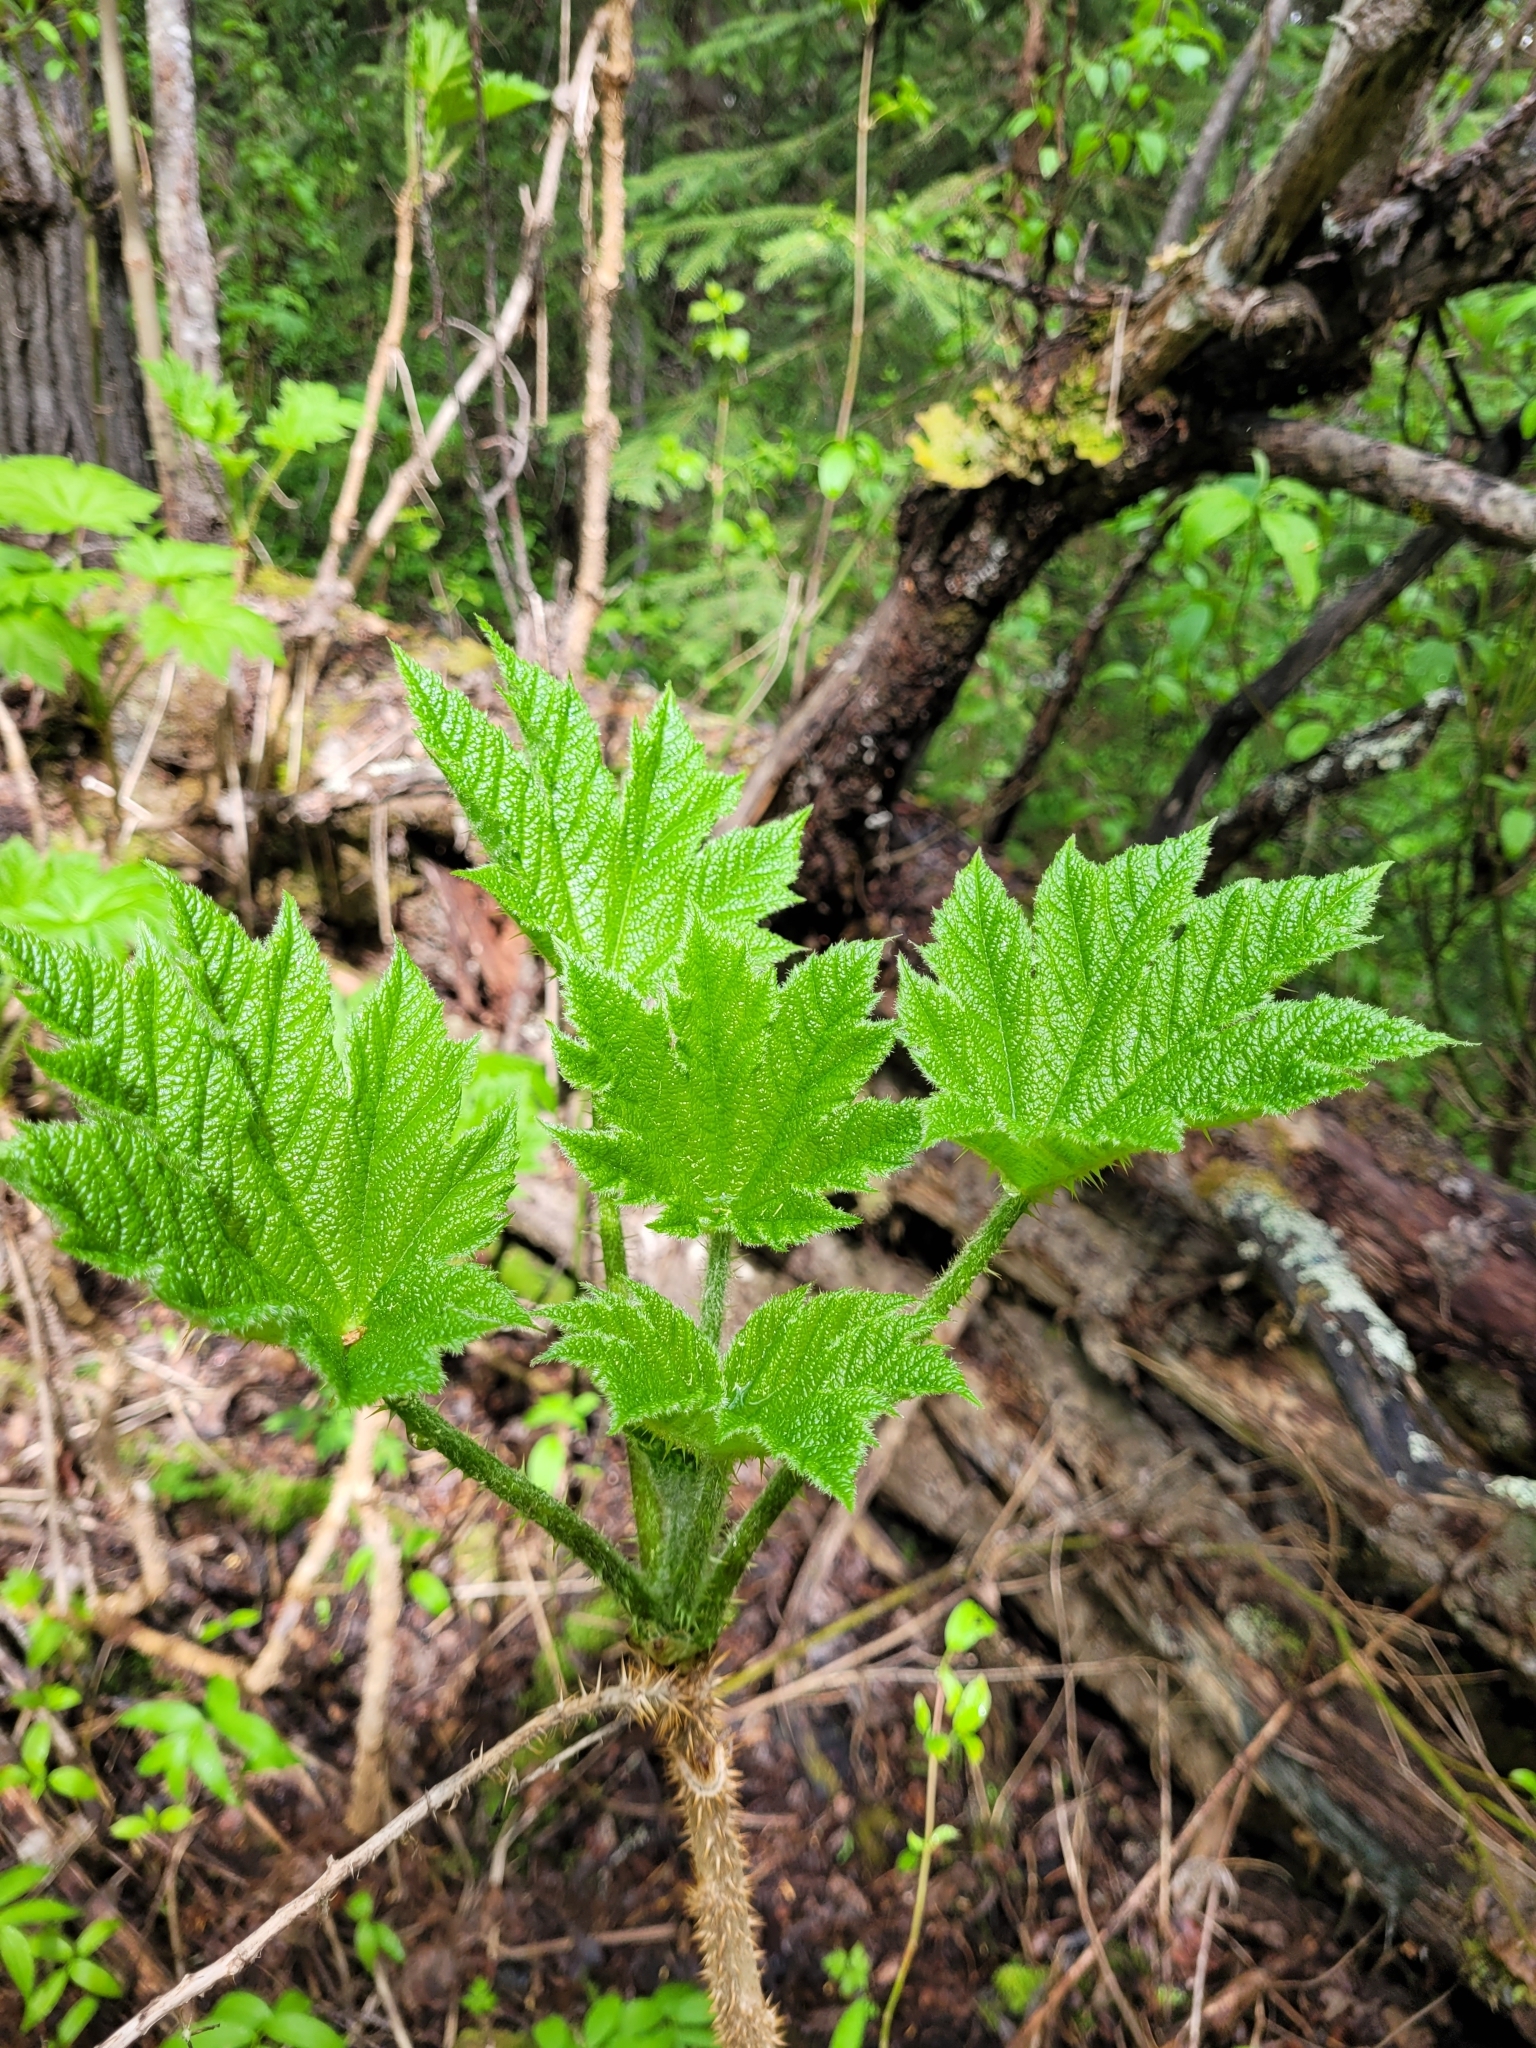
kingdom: Plantae
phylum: Tracheophyta
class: Magnoliopsida
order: Apiales
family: Araliaceae
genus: Oplopanax
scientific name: Oplopanax horridus
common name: Devil's walking-stick
